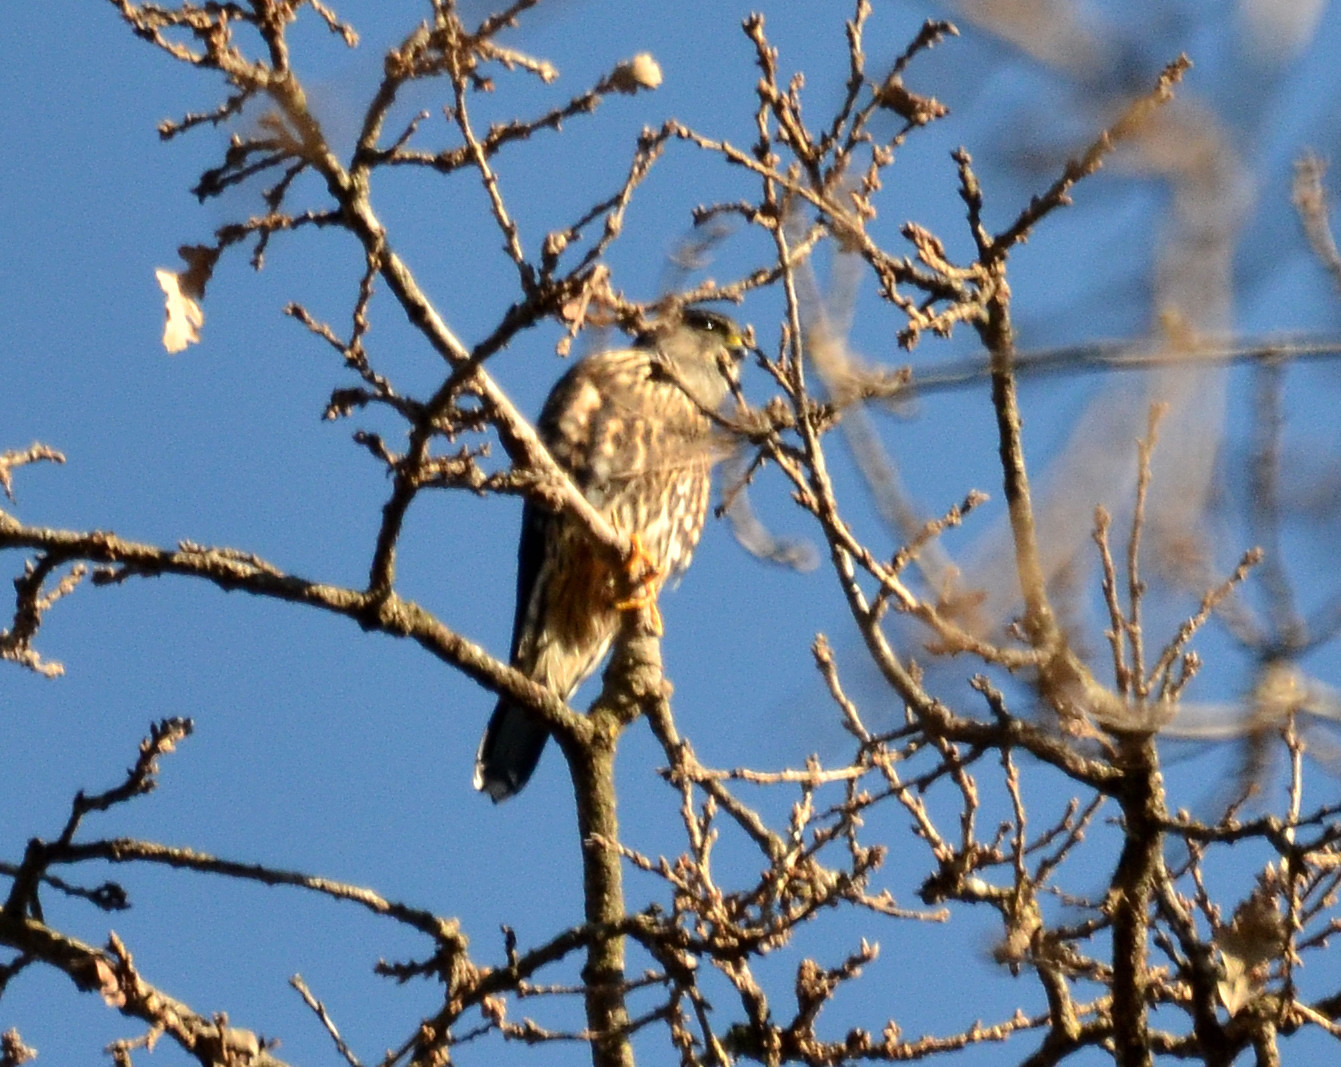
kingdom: Animalia
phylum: Chordata
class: Aves
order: Falconiformes
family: Falconidae
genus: Falco
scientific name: Falco columbarius
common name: Merlin
